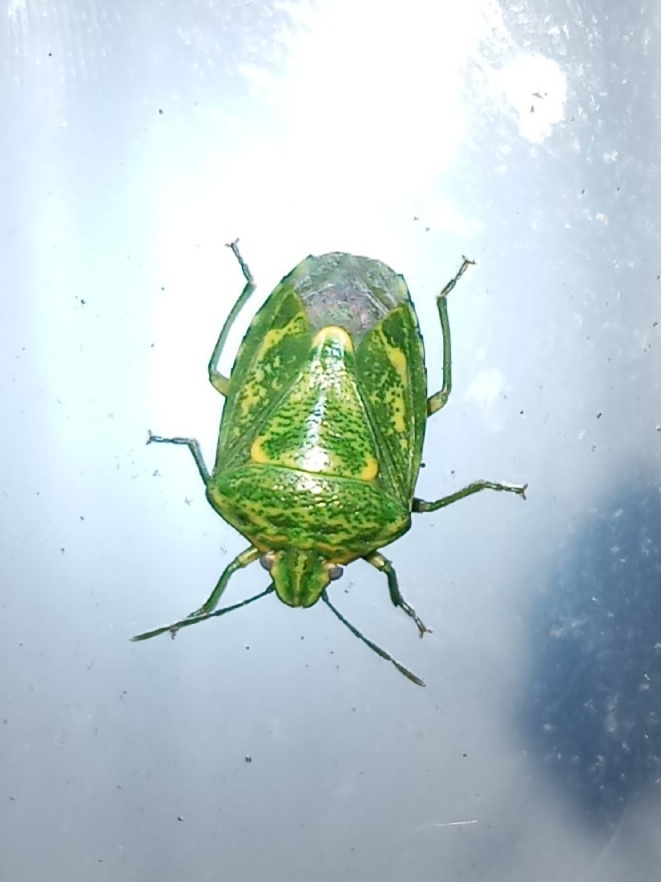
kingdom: Animalia
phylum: Arthropoda
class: Insecta
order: Hemiptera
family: Pentatomidae
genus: Banasa
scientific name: Banasa euchlora
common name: Cedar berry bug
